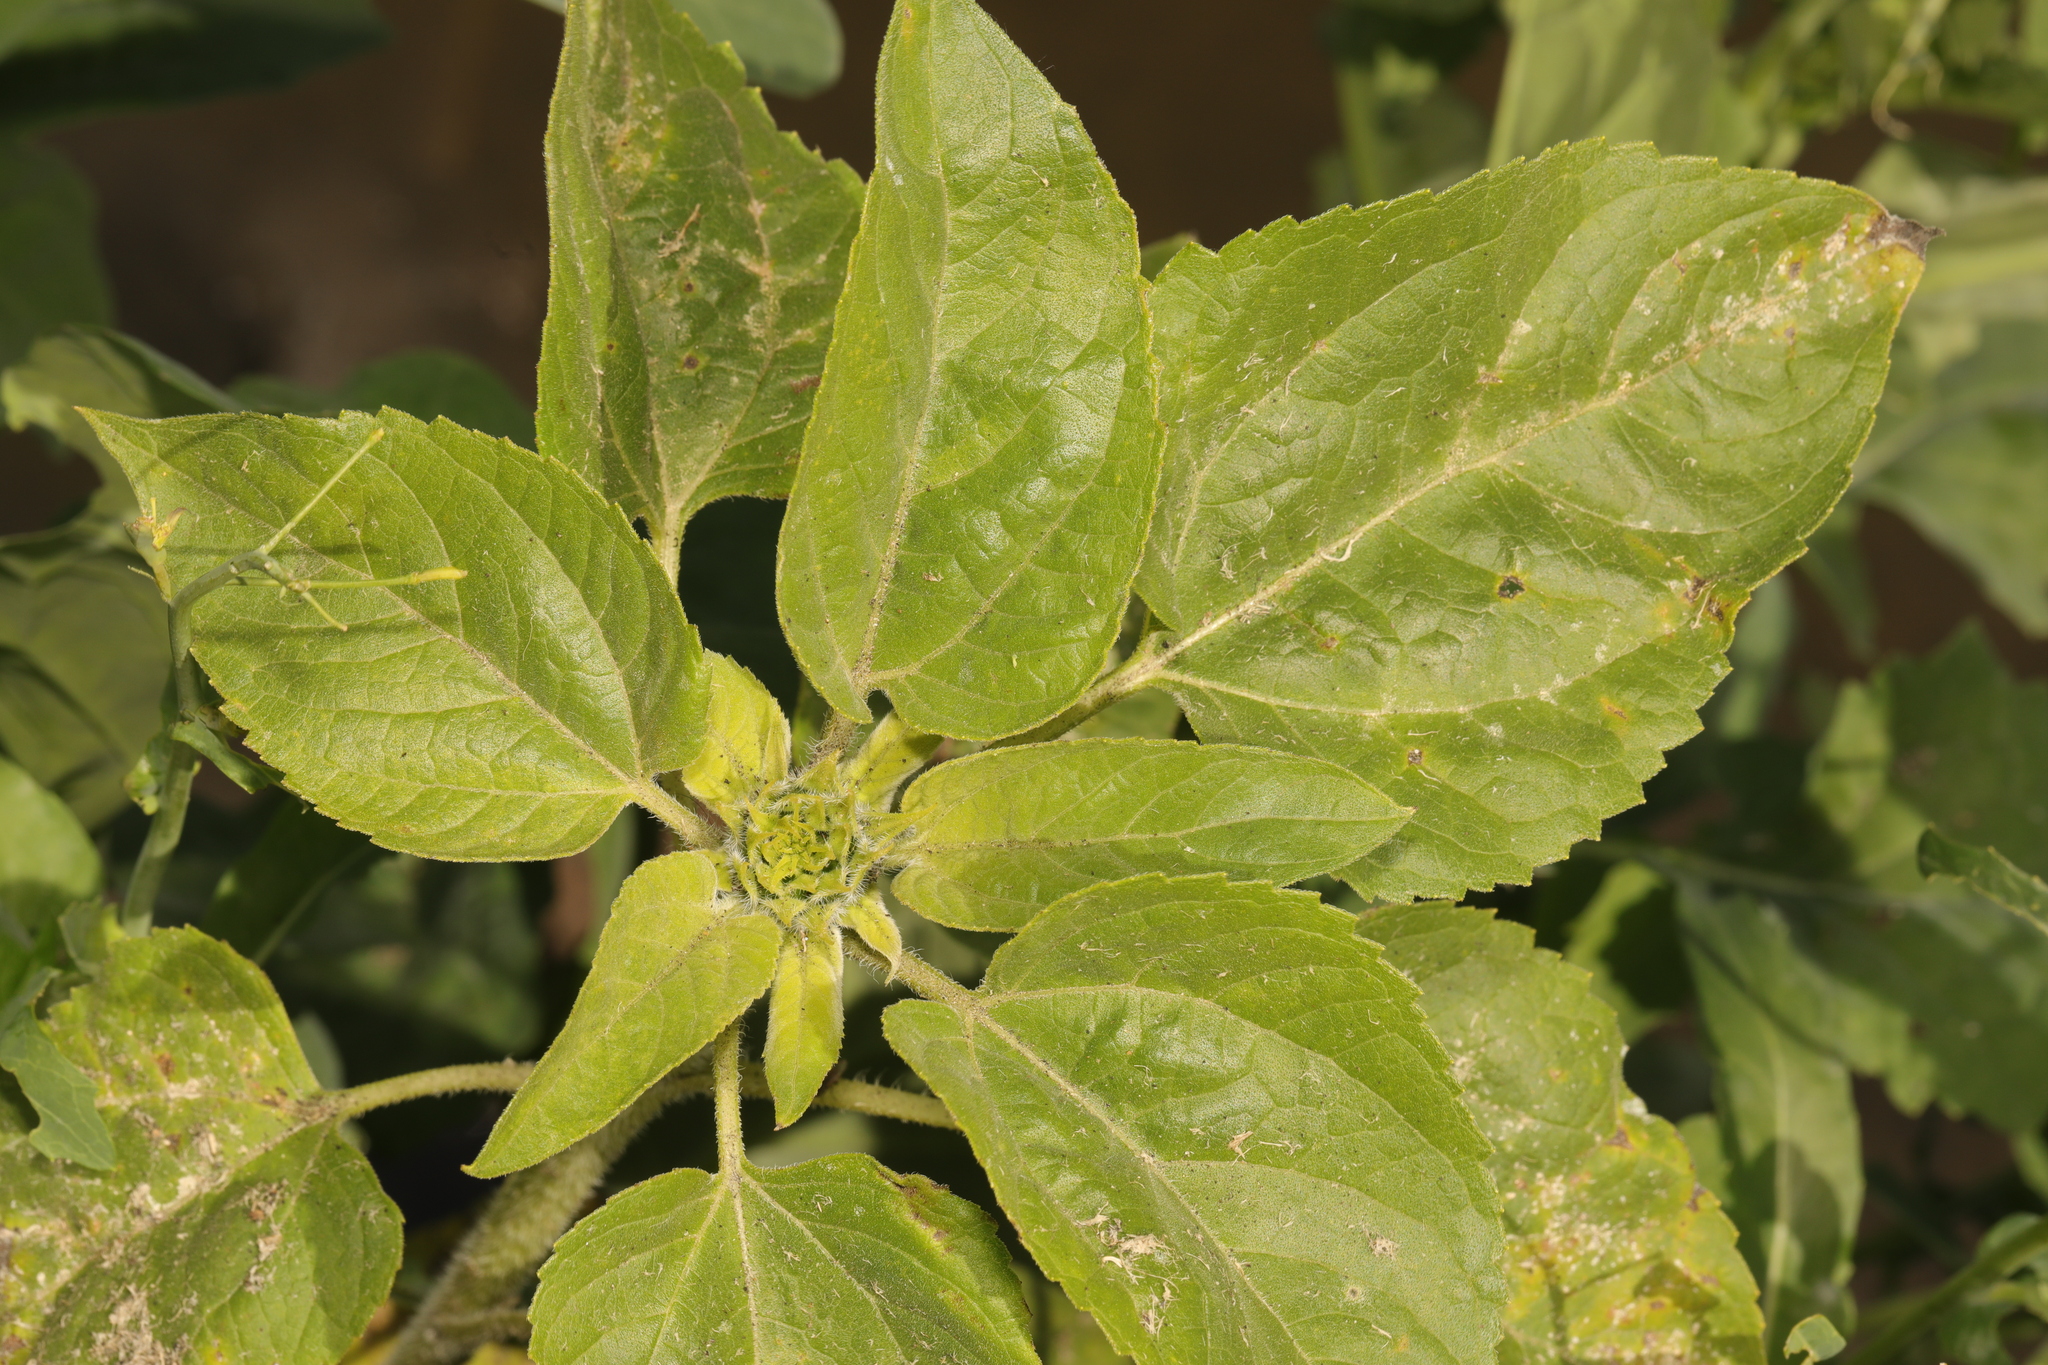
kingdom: Plantae
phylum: Tracheophyta
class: Magnoliopsida
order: Asterales
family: Asteraceae
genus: Helianthus
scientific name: Helianthus annuus
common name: Sunflower
